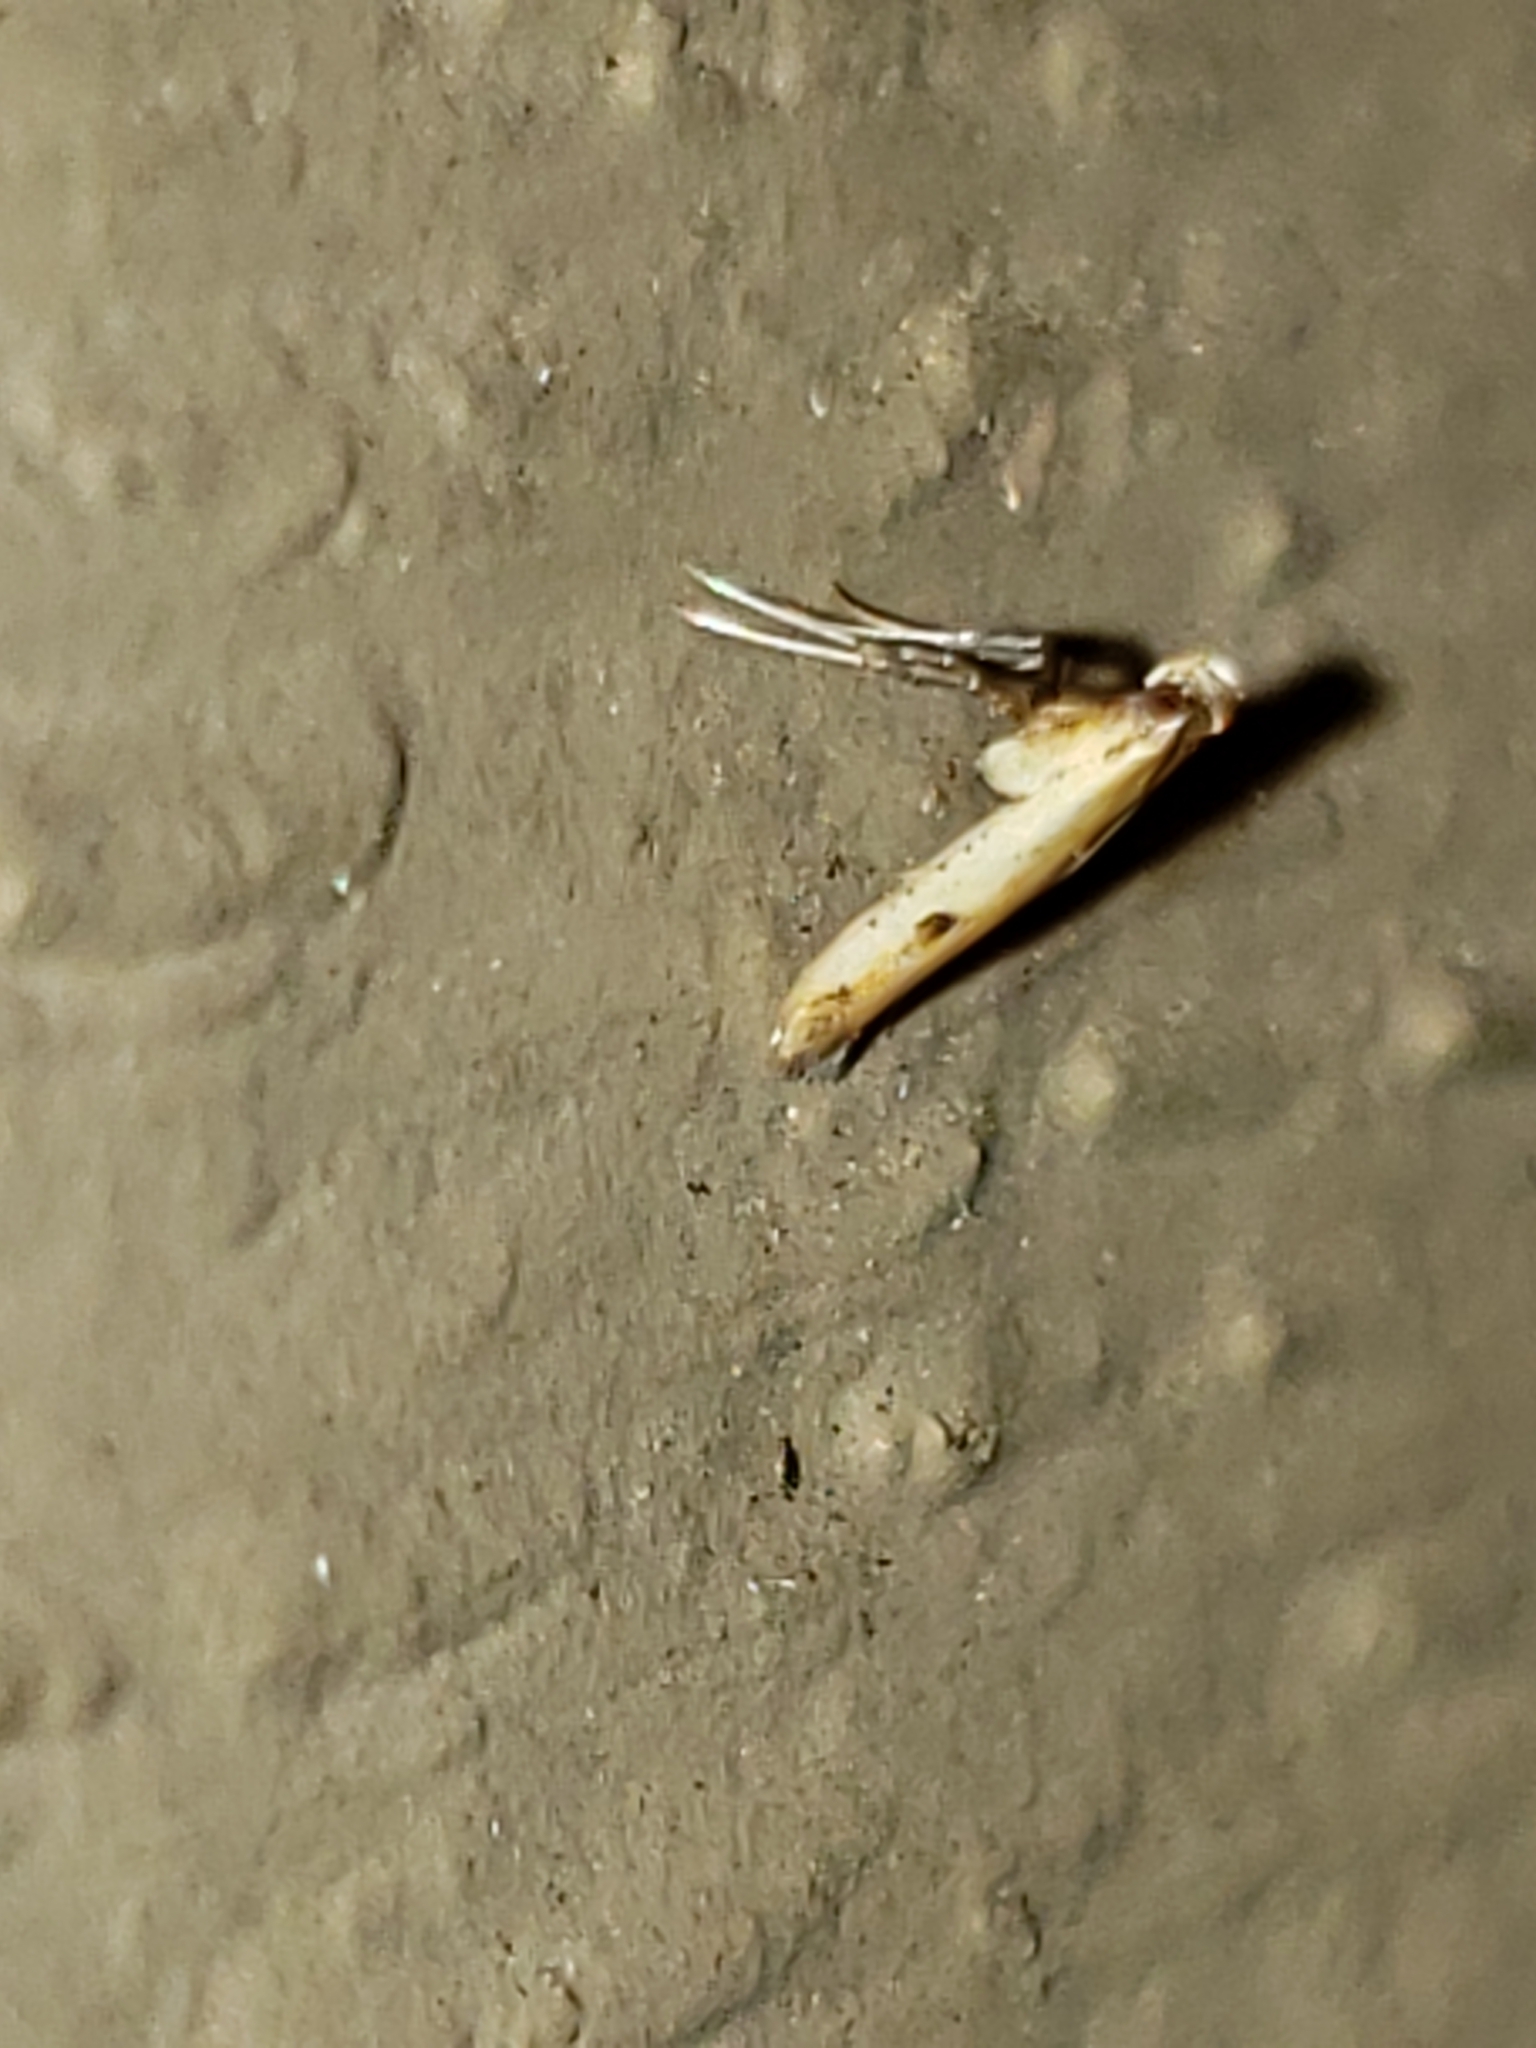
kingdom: Animalia
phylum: Arthropoda
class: Insecta
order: Lepidoptera
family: Gracillariidae
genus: Caloptilia
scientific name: Caloptilia violacella
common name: Tick-trefoil caloptilia moth
